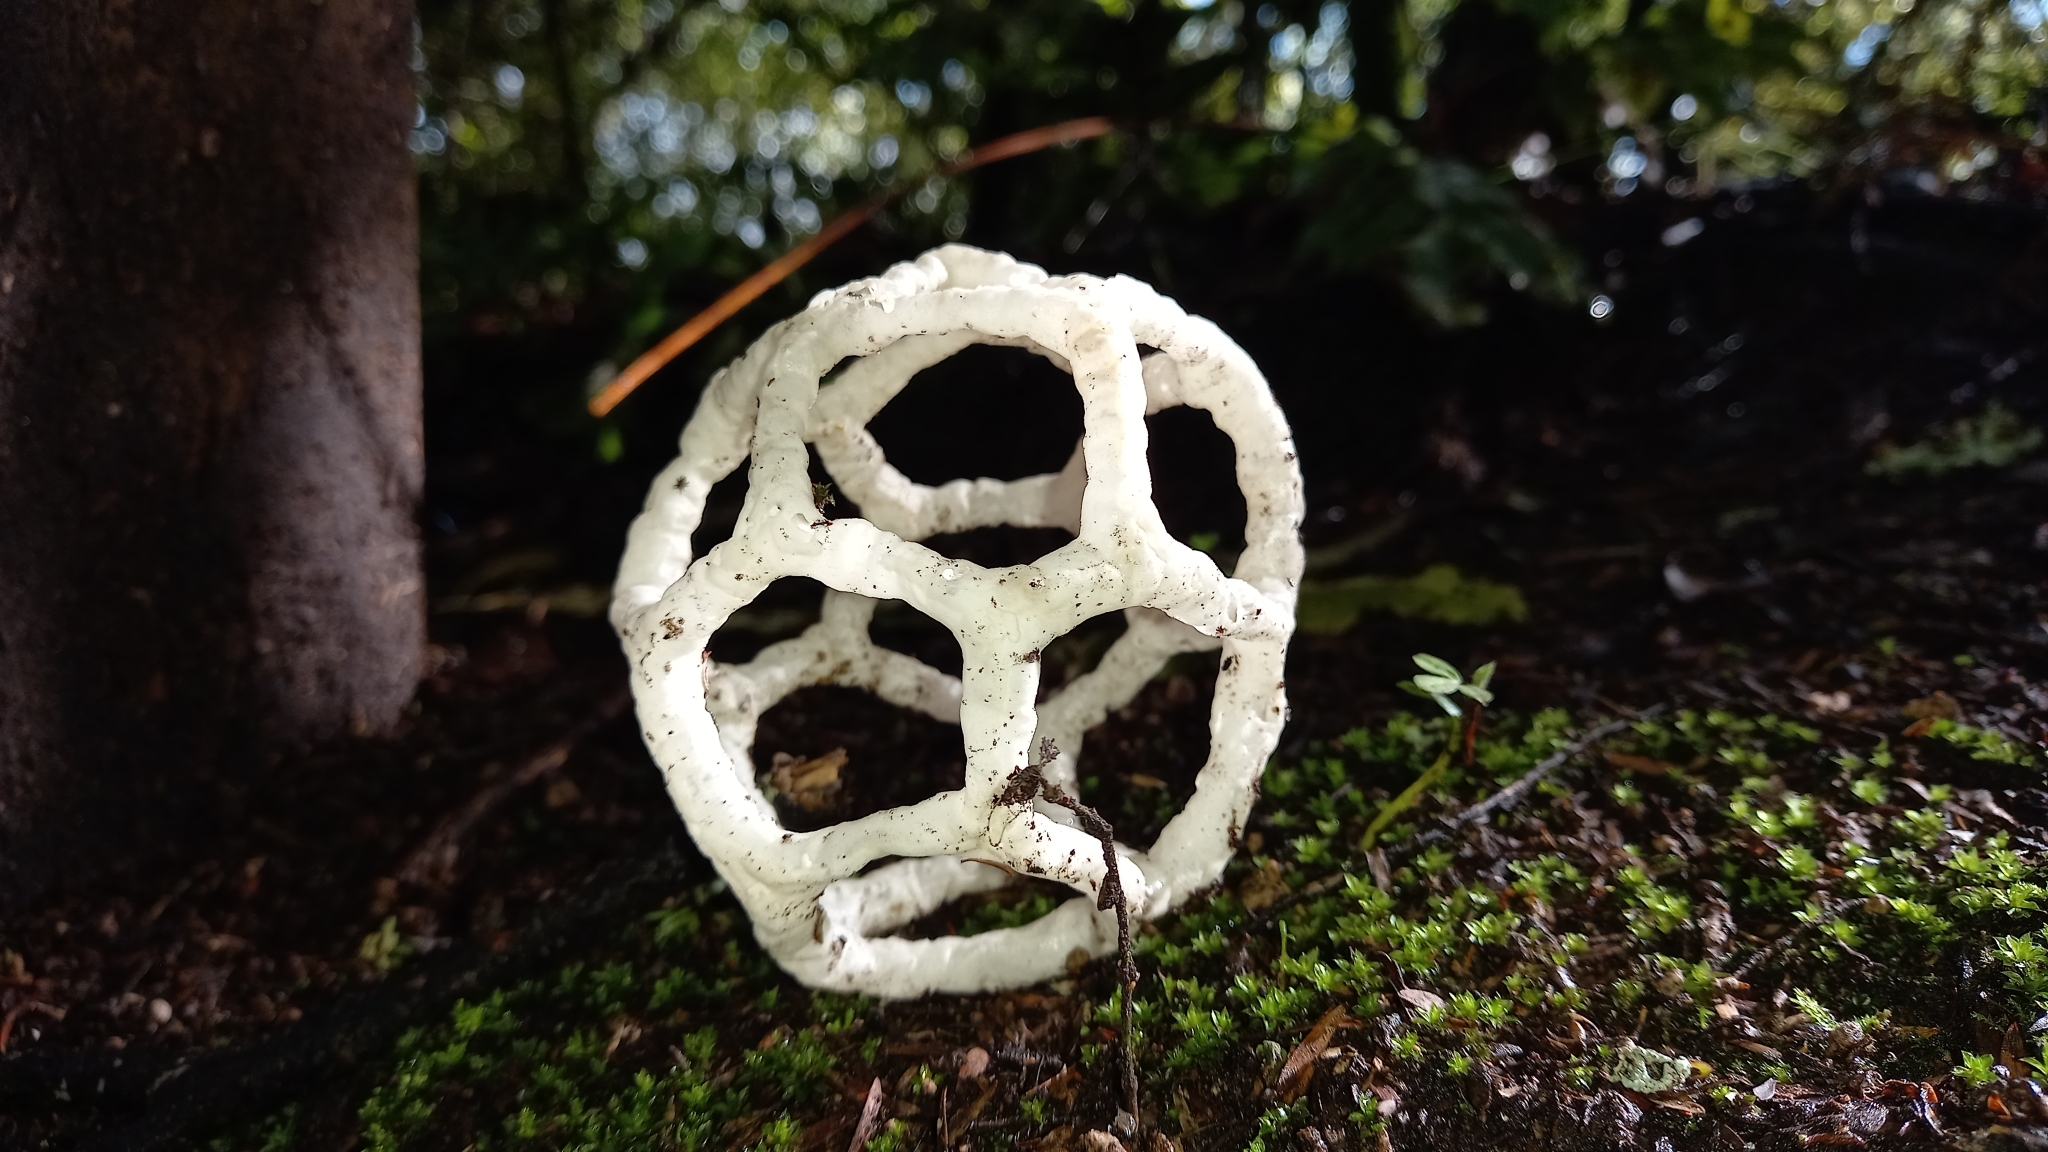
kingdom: Fungi
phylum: Basidiomycota
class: Agaricomycetes
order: Phallales
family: Phallaceae
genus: Ileodictyon
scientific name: Ileodictyon cibarium
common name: Basket fungus
